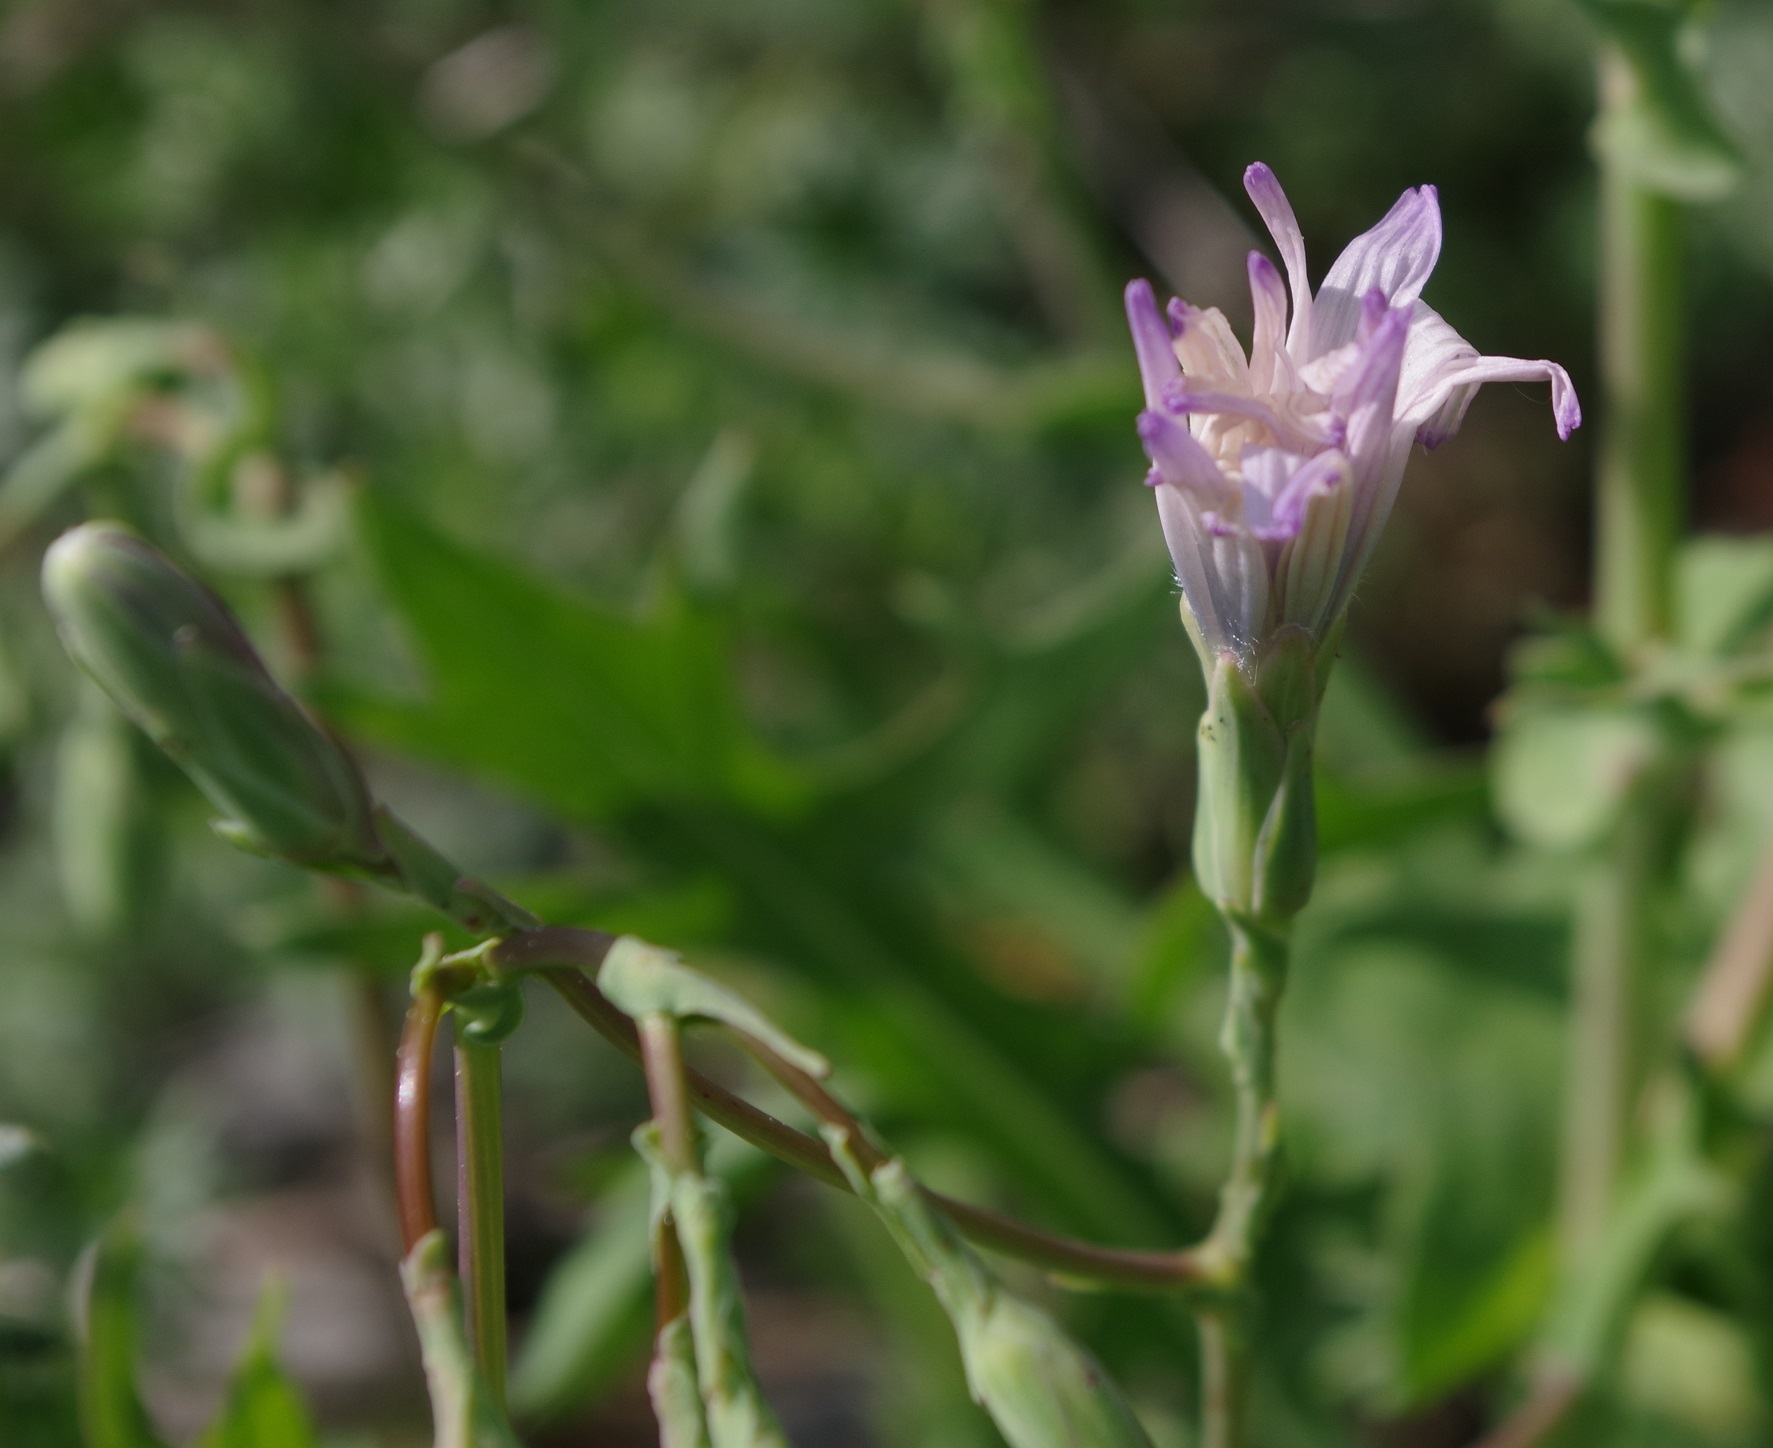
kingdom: Plantae
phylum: Tracheophyta
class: Magnoliopsida
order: Asterales
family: Asteraceae
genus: Lactuca
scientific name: Lactuca perennis
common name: Mountain lettuce
